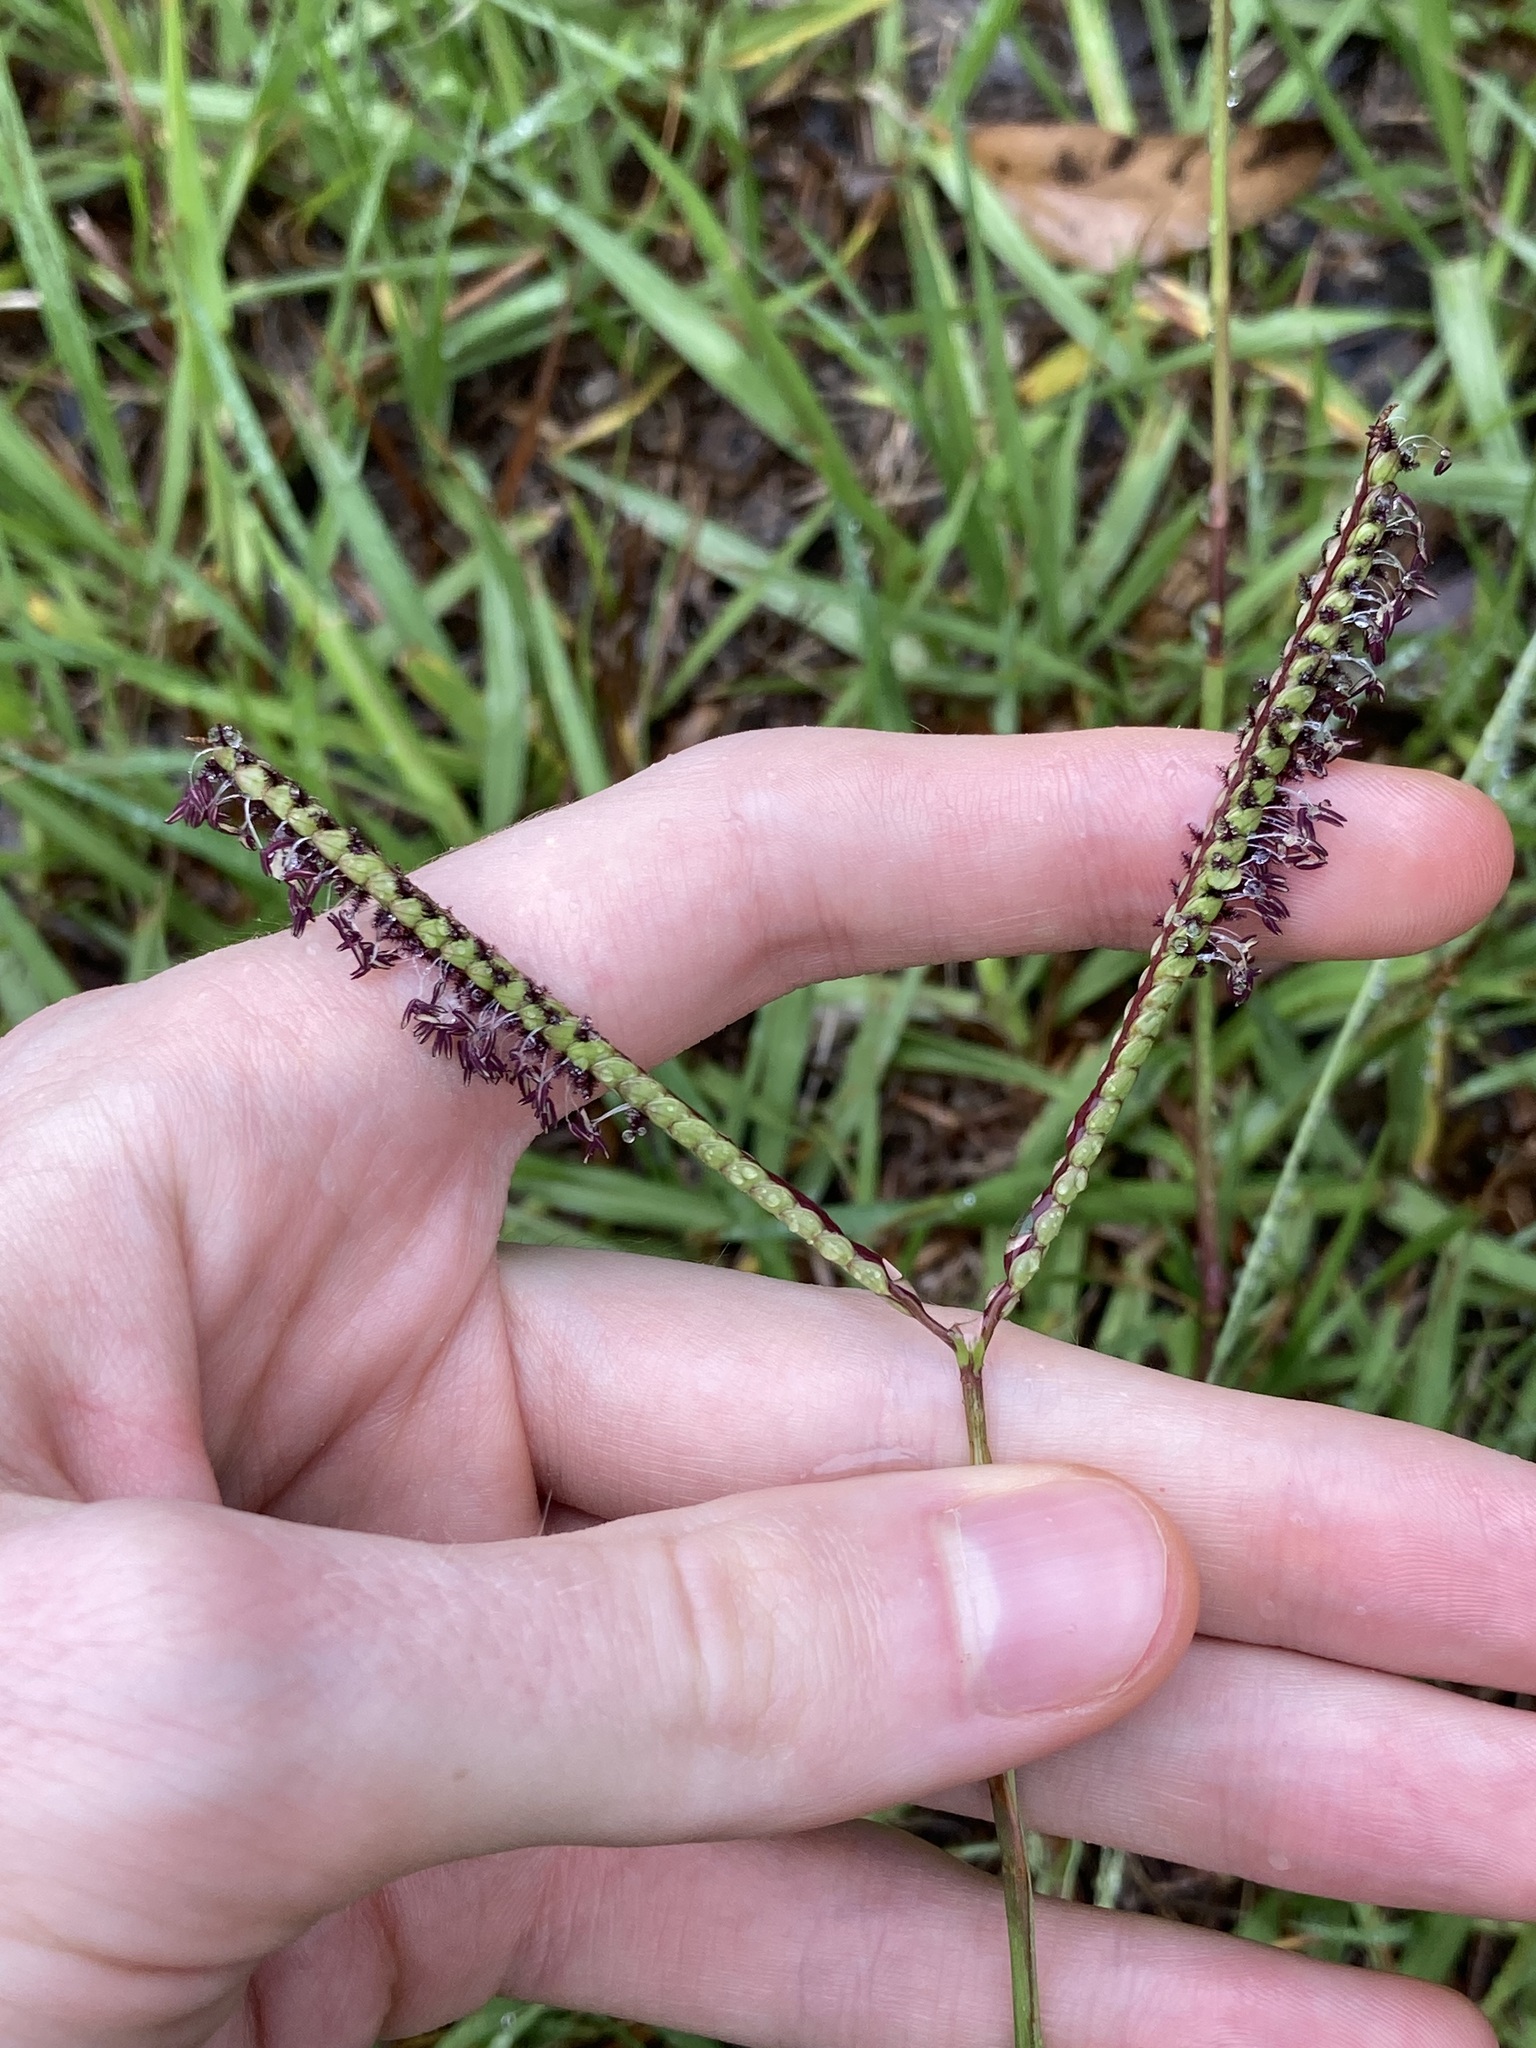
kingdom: Plantae
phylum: Tracheophyta
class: Liliopsida
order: Poales
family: Poaceae
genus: Paspalum
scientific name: Paspalum notatum
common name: Bahiagrass
